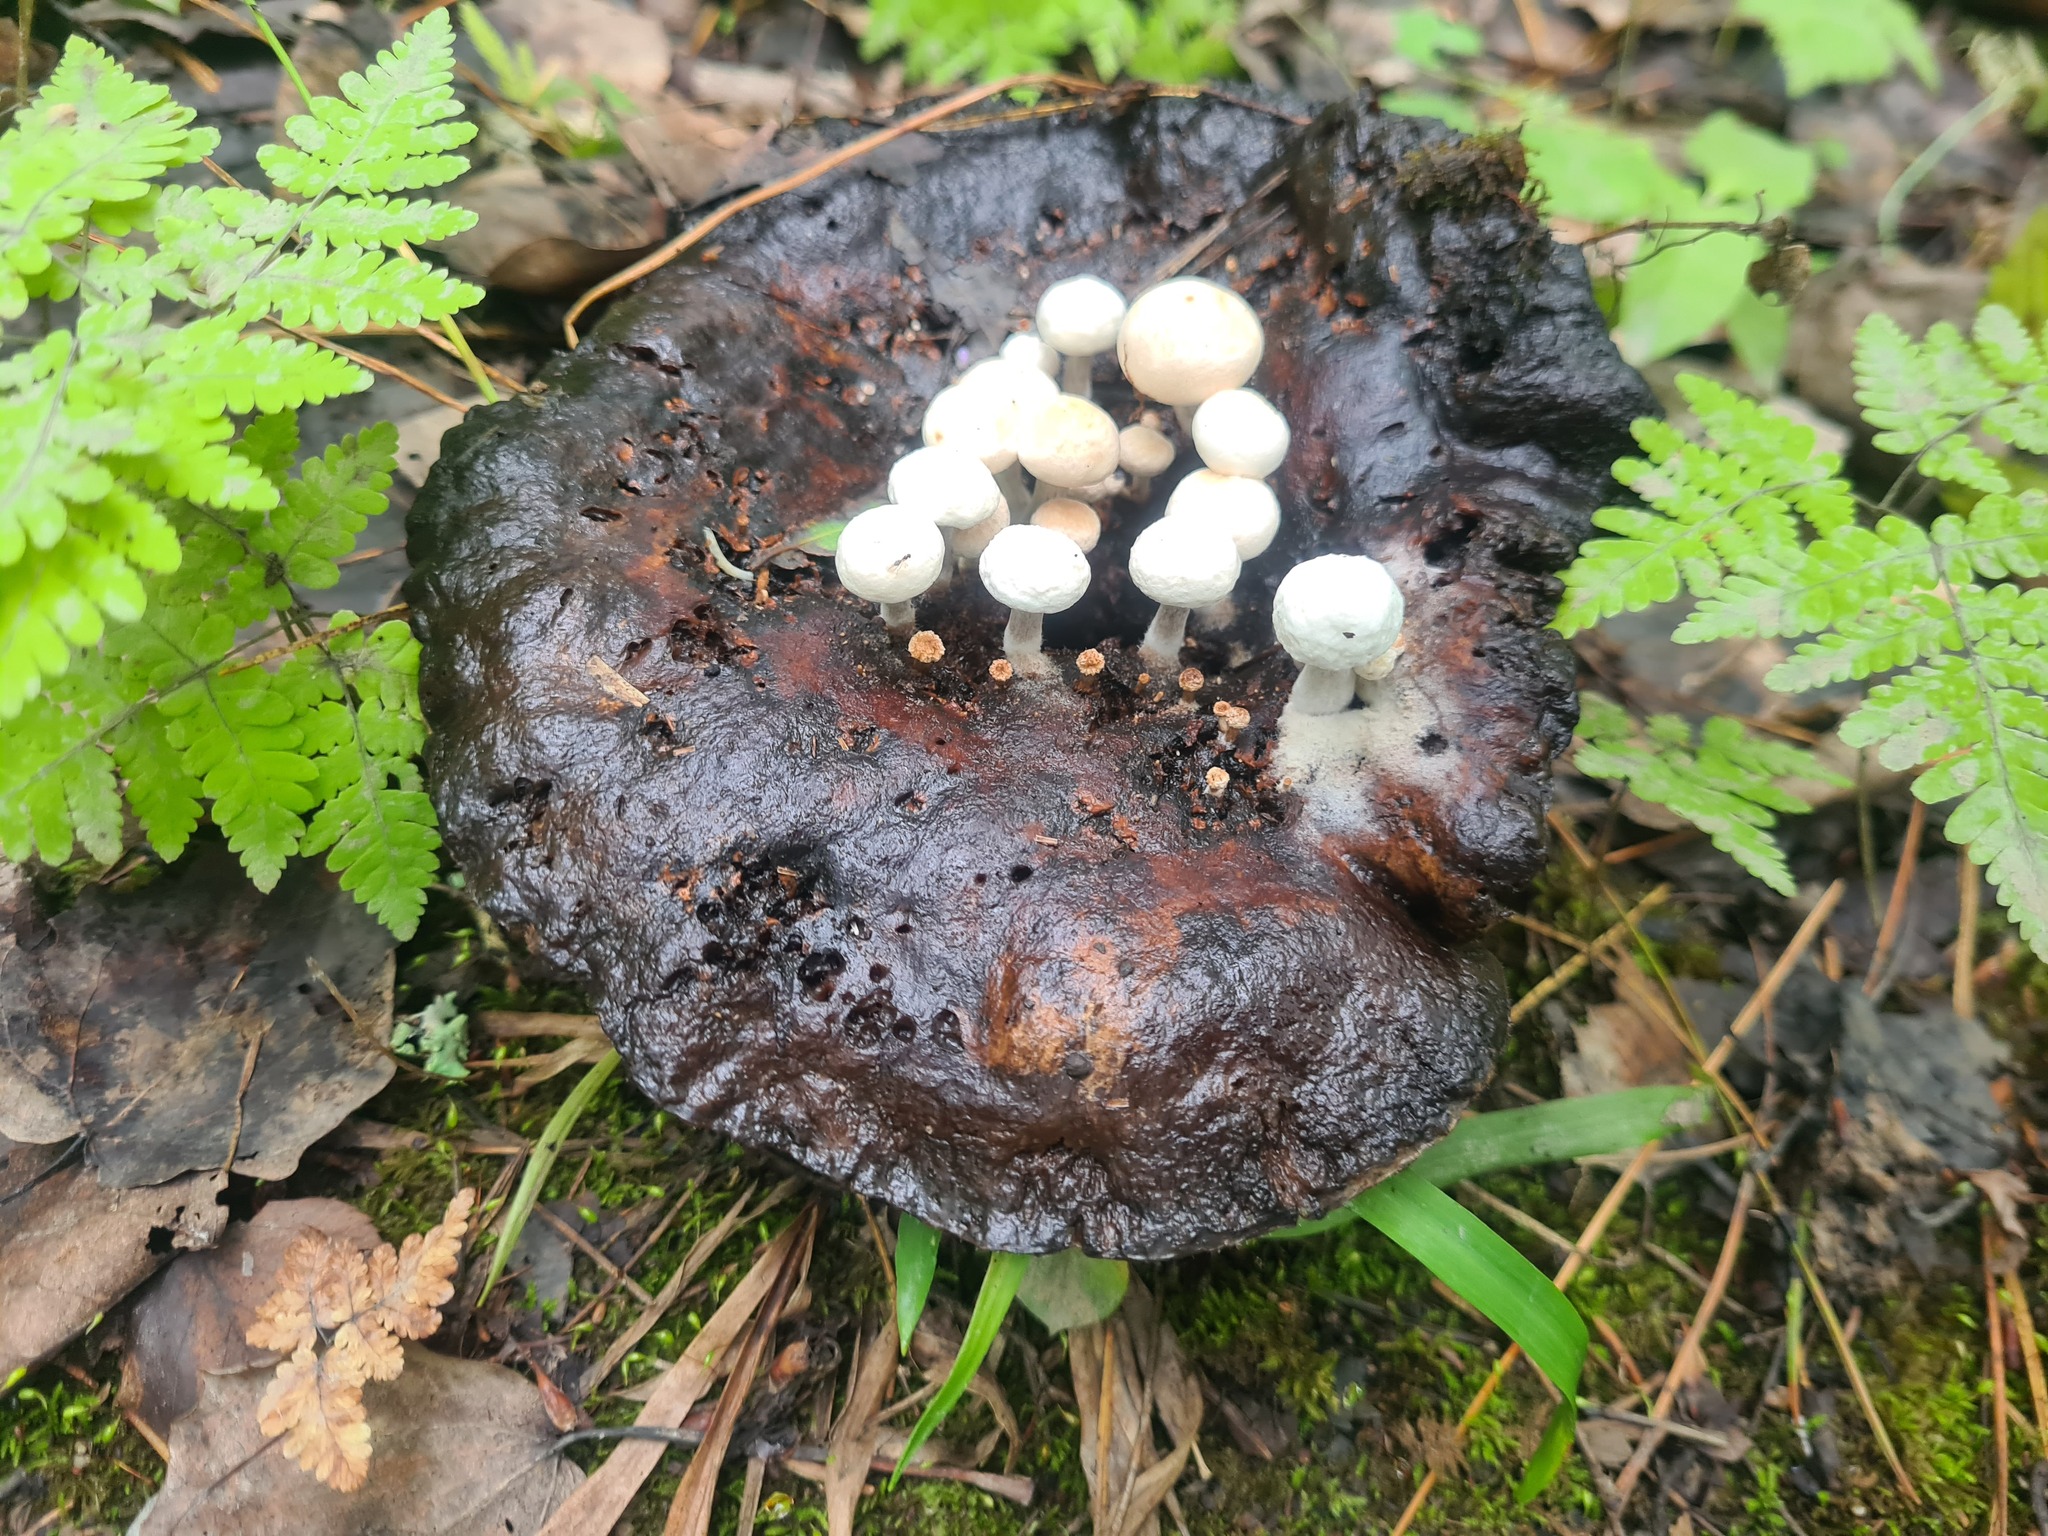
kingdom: Fungi
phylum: Basidiomycota
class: Agaricomycetes
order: Agaricales
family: Lyophyllaceae
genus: Asterophora
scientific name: Asterophora lycoperdoides
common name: Pick-a-back toadstool
